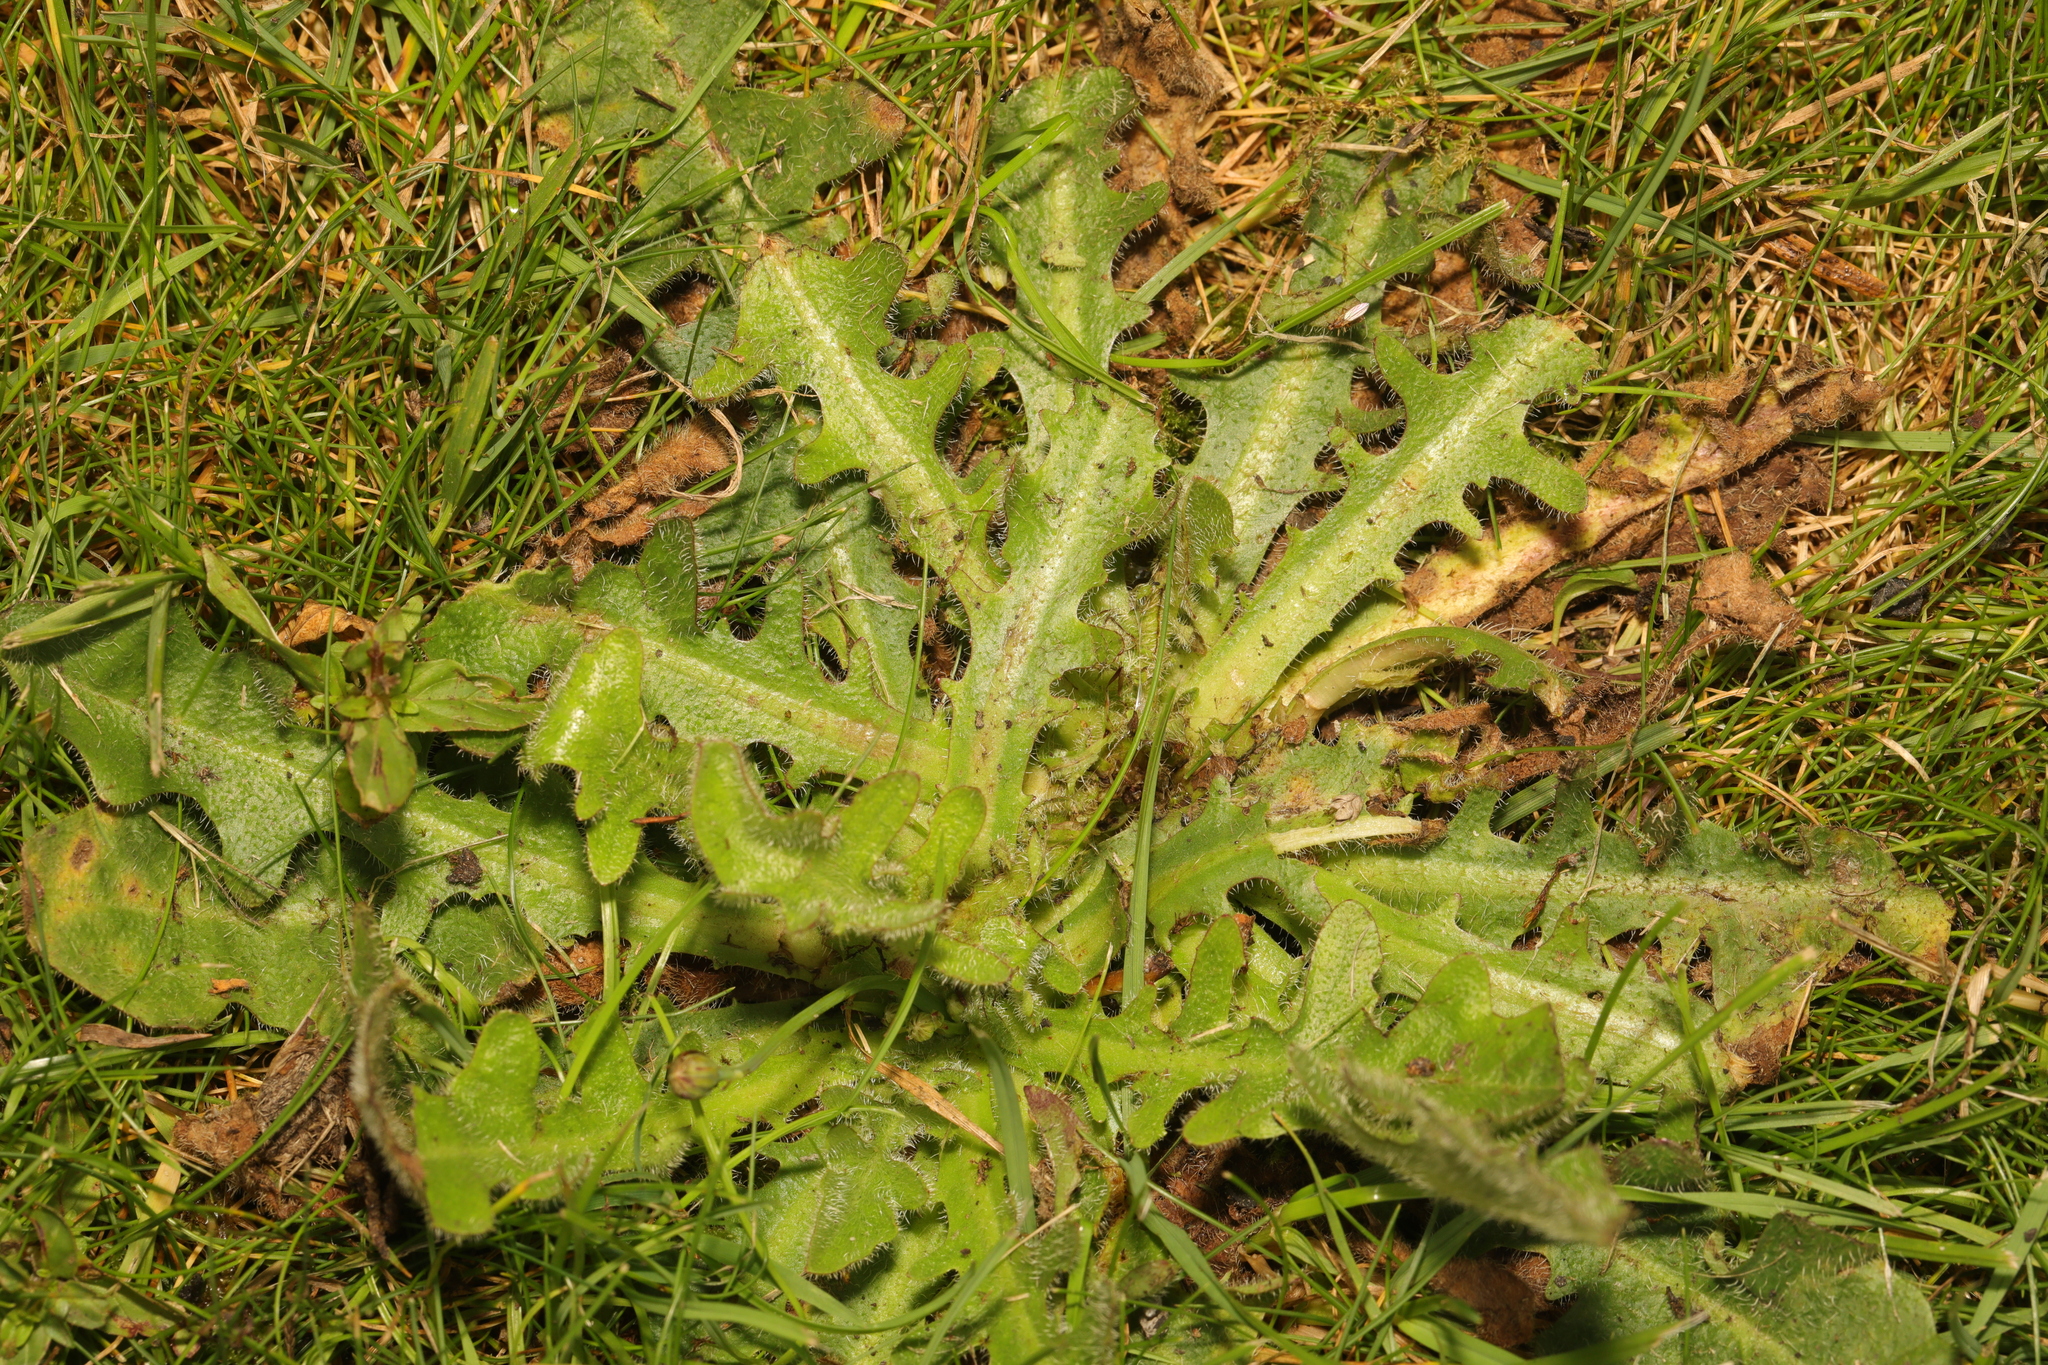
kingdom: Plantae
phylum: Tracheophyta
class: Magnoliopsida
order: Asterales
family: Asteraceae
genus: Hypochaeris
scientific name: Hypochaeris radicata
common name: Flatweed
